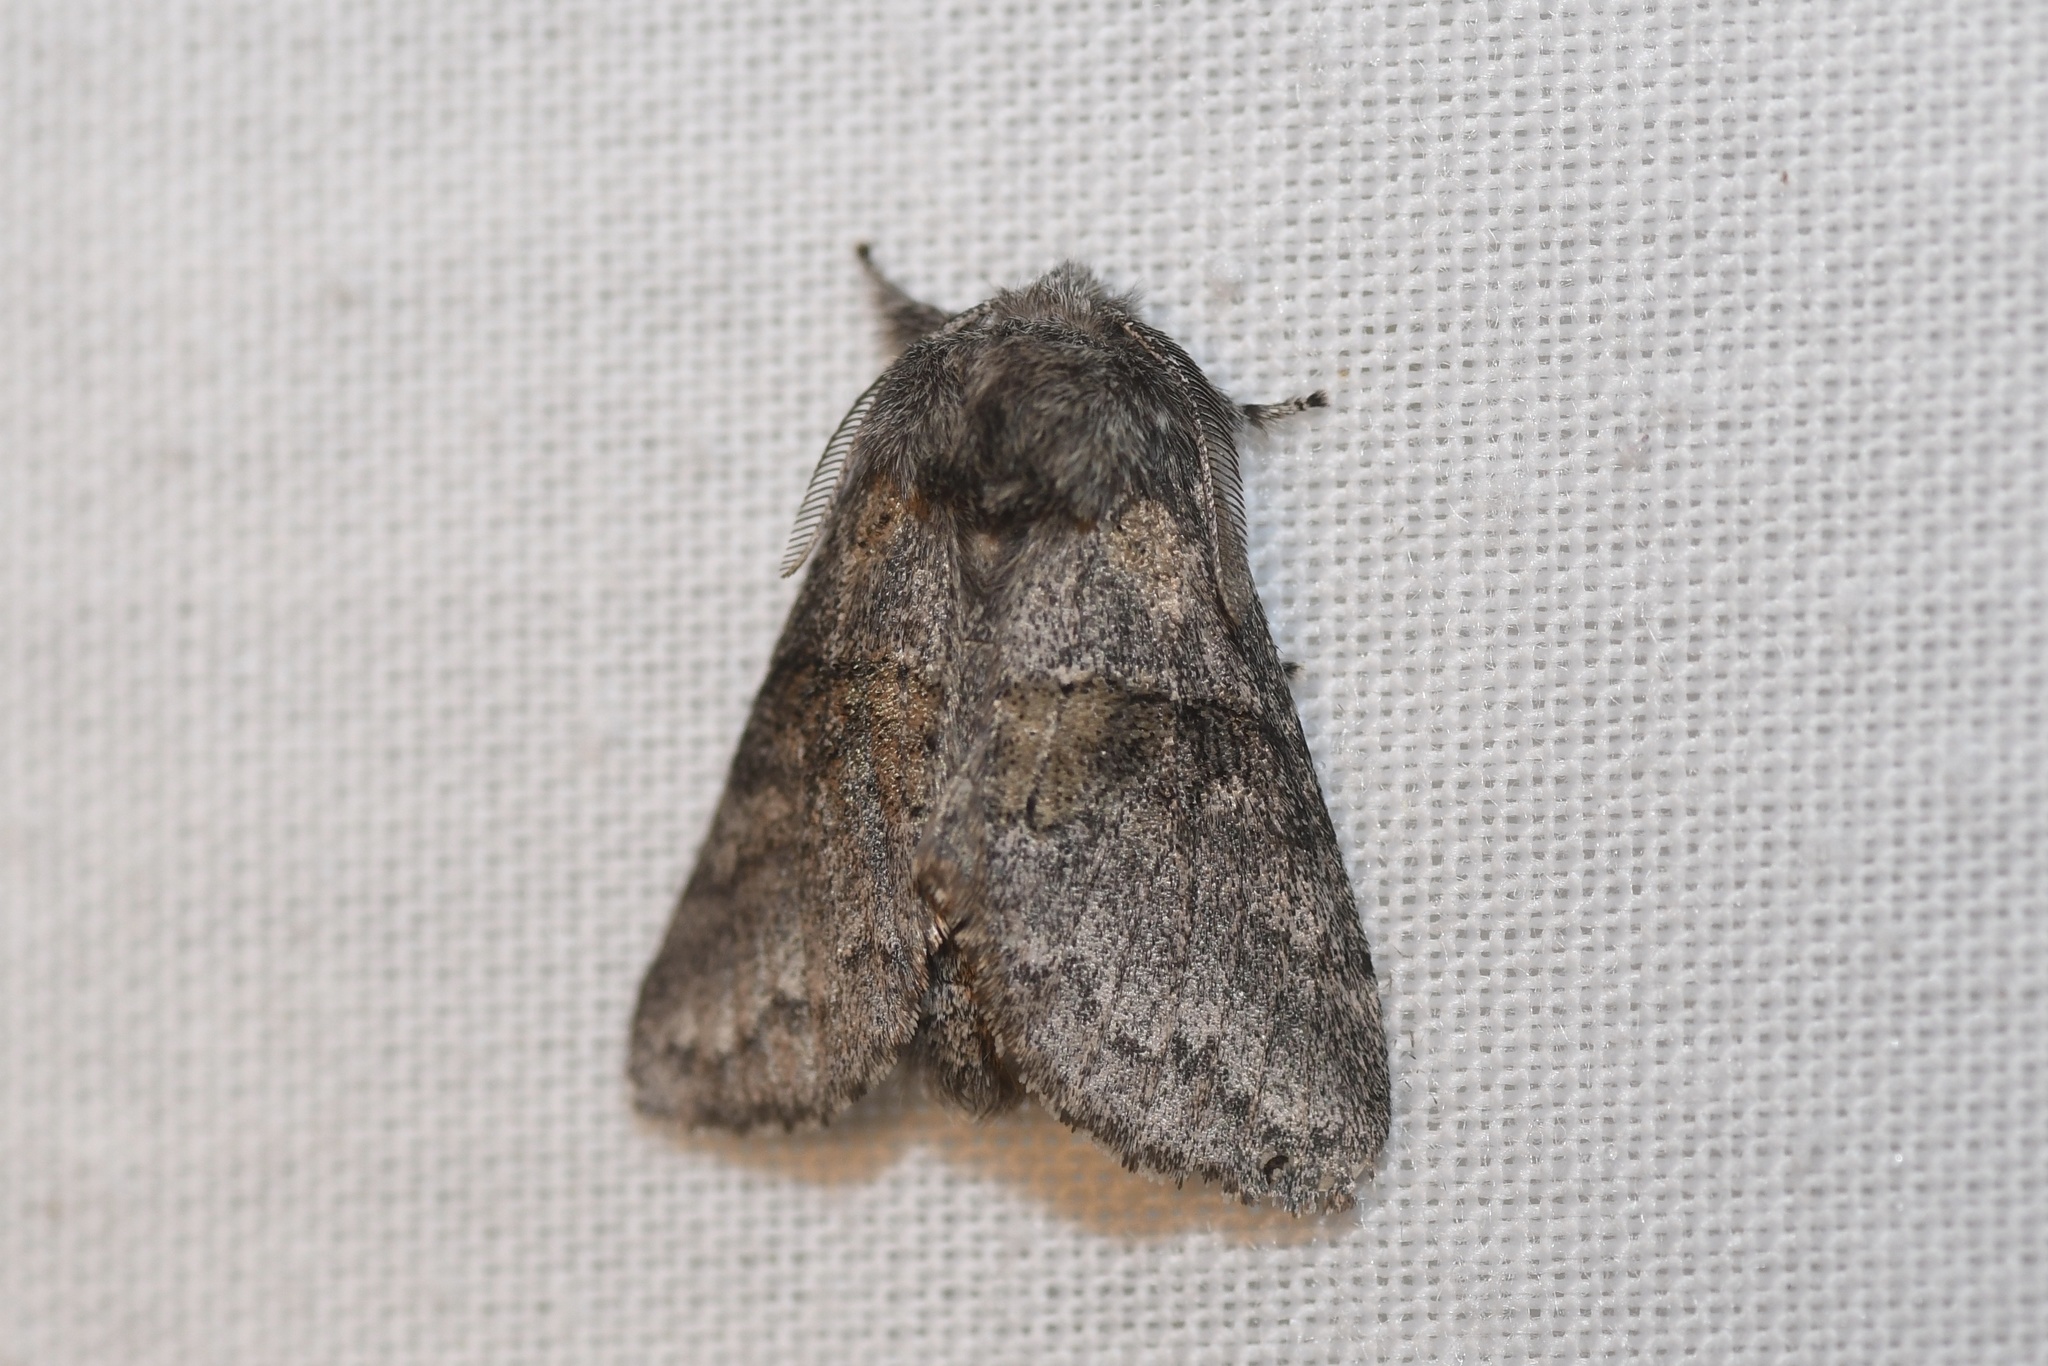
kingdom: Animalia
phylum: Arthropoda
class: Insecta
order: Lepidoptera
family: Notodontidae
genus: Gluphisia
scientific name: Gluphisia septentrionis
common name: Common gluphisia
